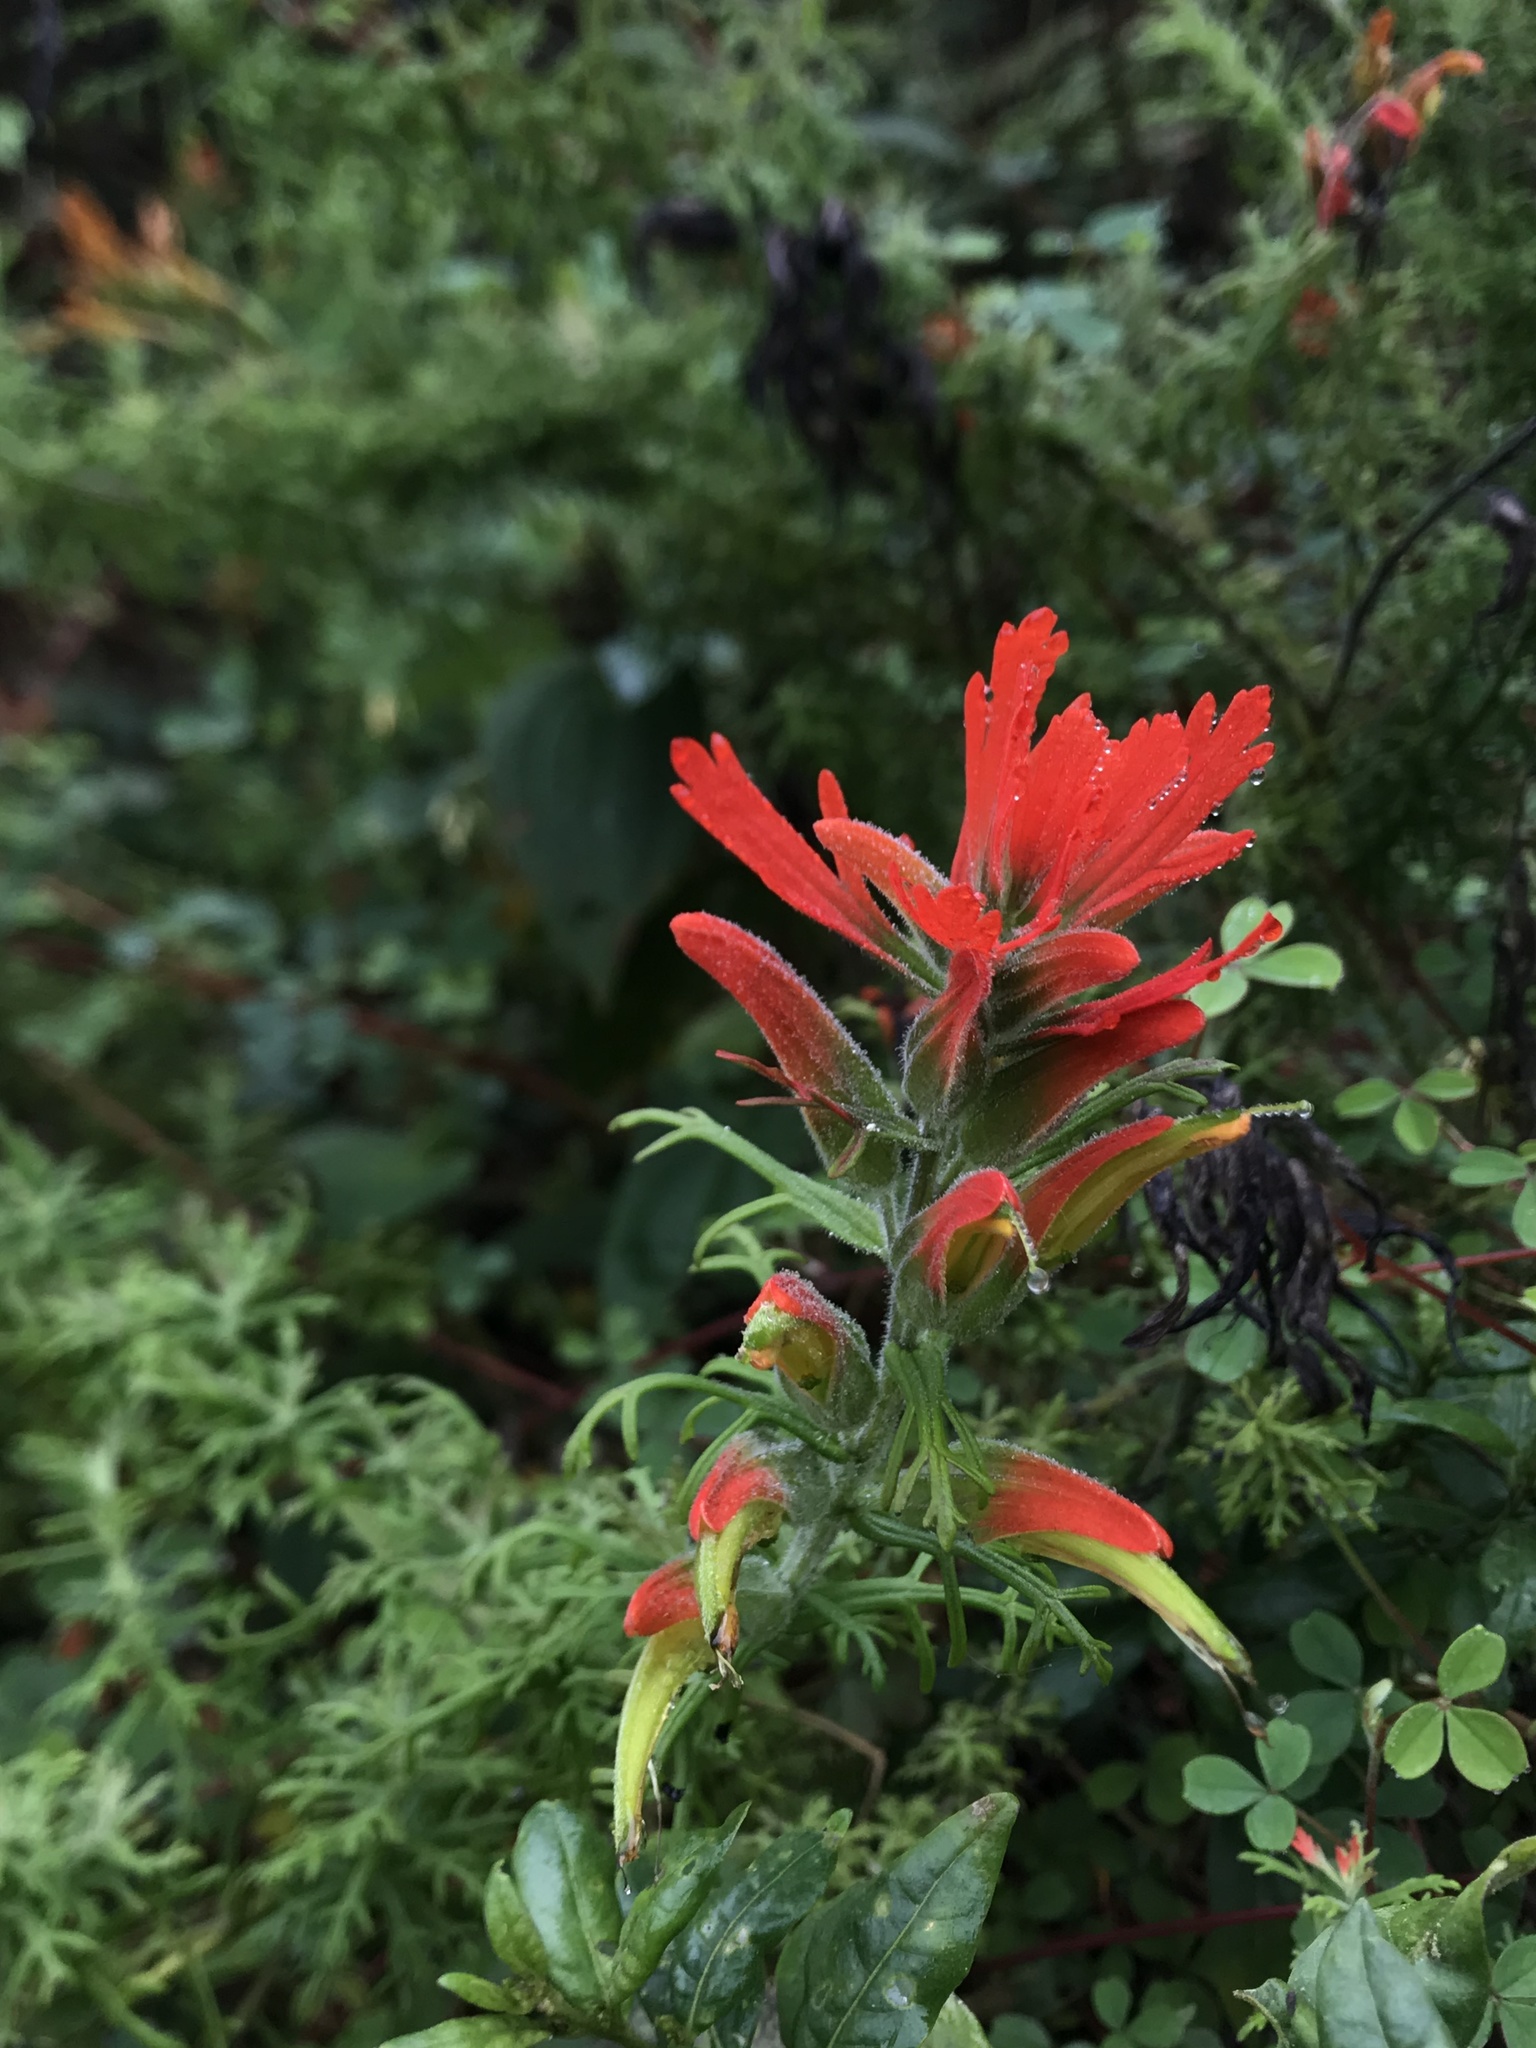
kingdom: Plantae
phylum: Tracheophyta
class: Magnoliopsida
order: Lamiales
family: Orobanchaceae
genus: Castilleja
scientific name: Castilleja fissifolia
